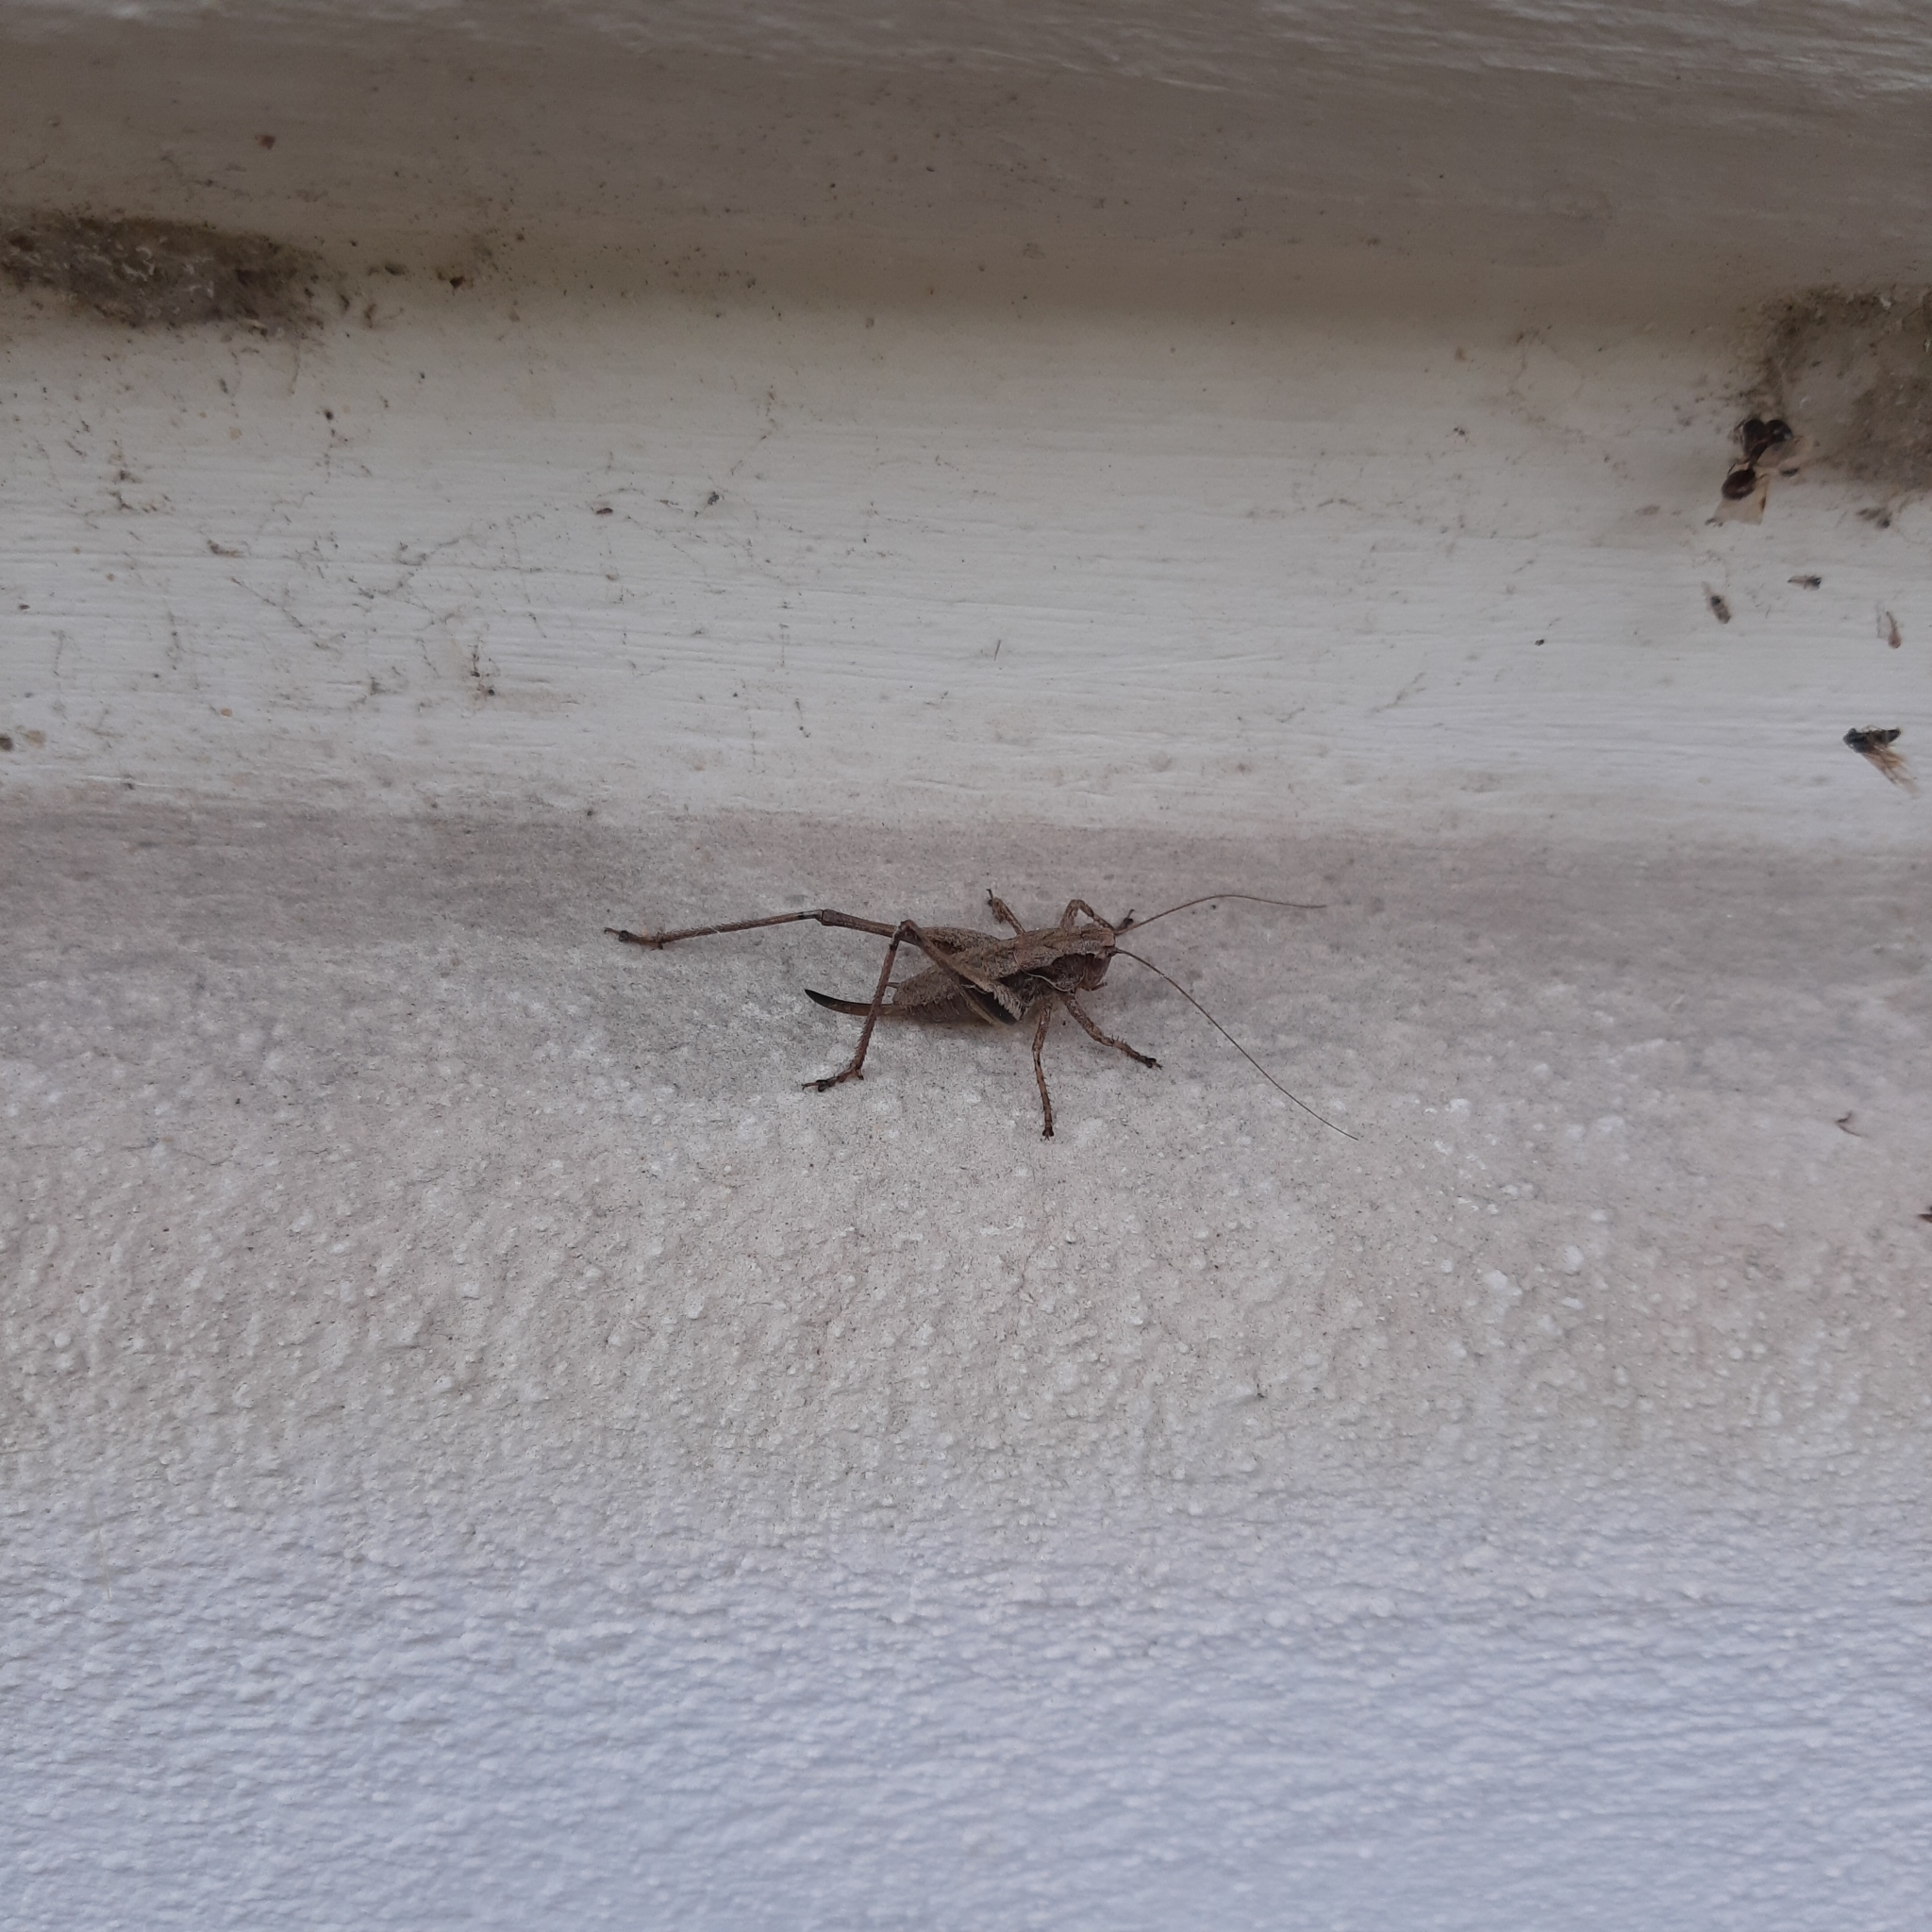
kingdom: Animalia
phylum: Arthropoda
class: Insecta
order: Orthoptera
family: Tettigoniidae
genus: Pholidoptera
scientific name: Pholidoptera griseoaptera
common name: Dark bush-cricket
